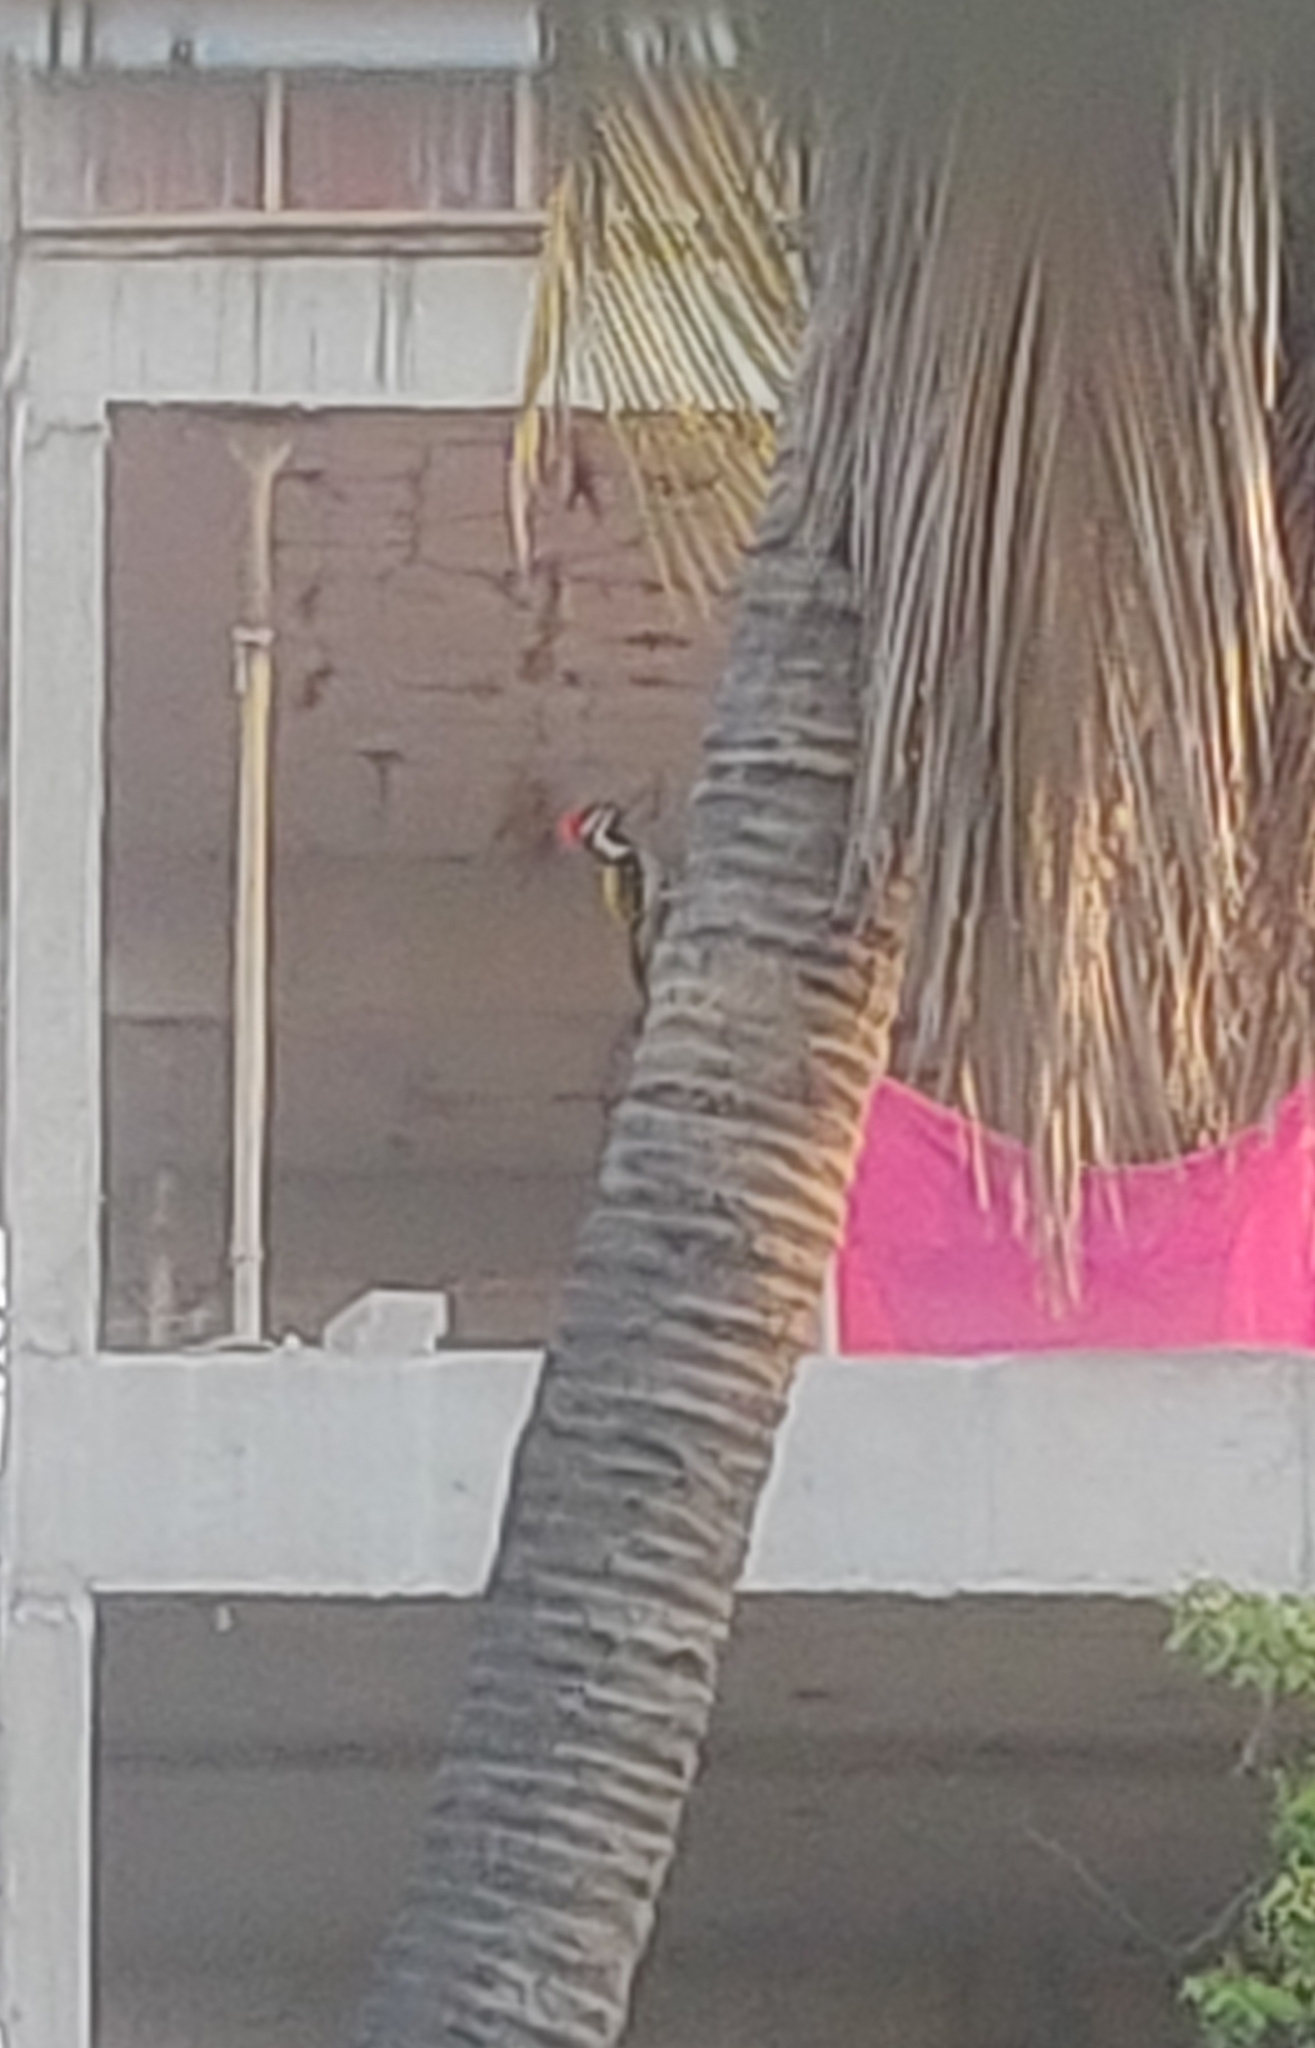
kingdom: Animalia
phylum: Chordata
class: Aves
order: Piciformes
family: Picidae
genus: Dinopium
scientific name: Dinopium benghalense
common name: Black-rumped flameback
